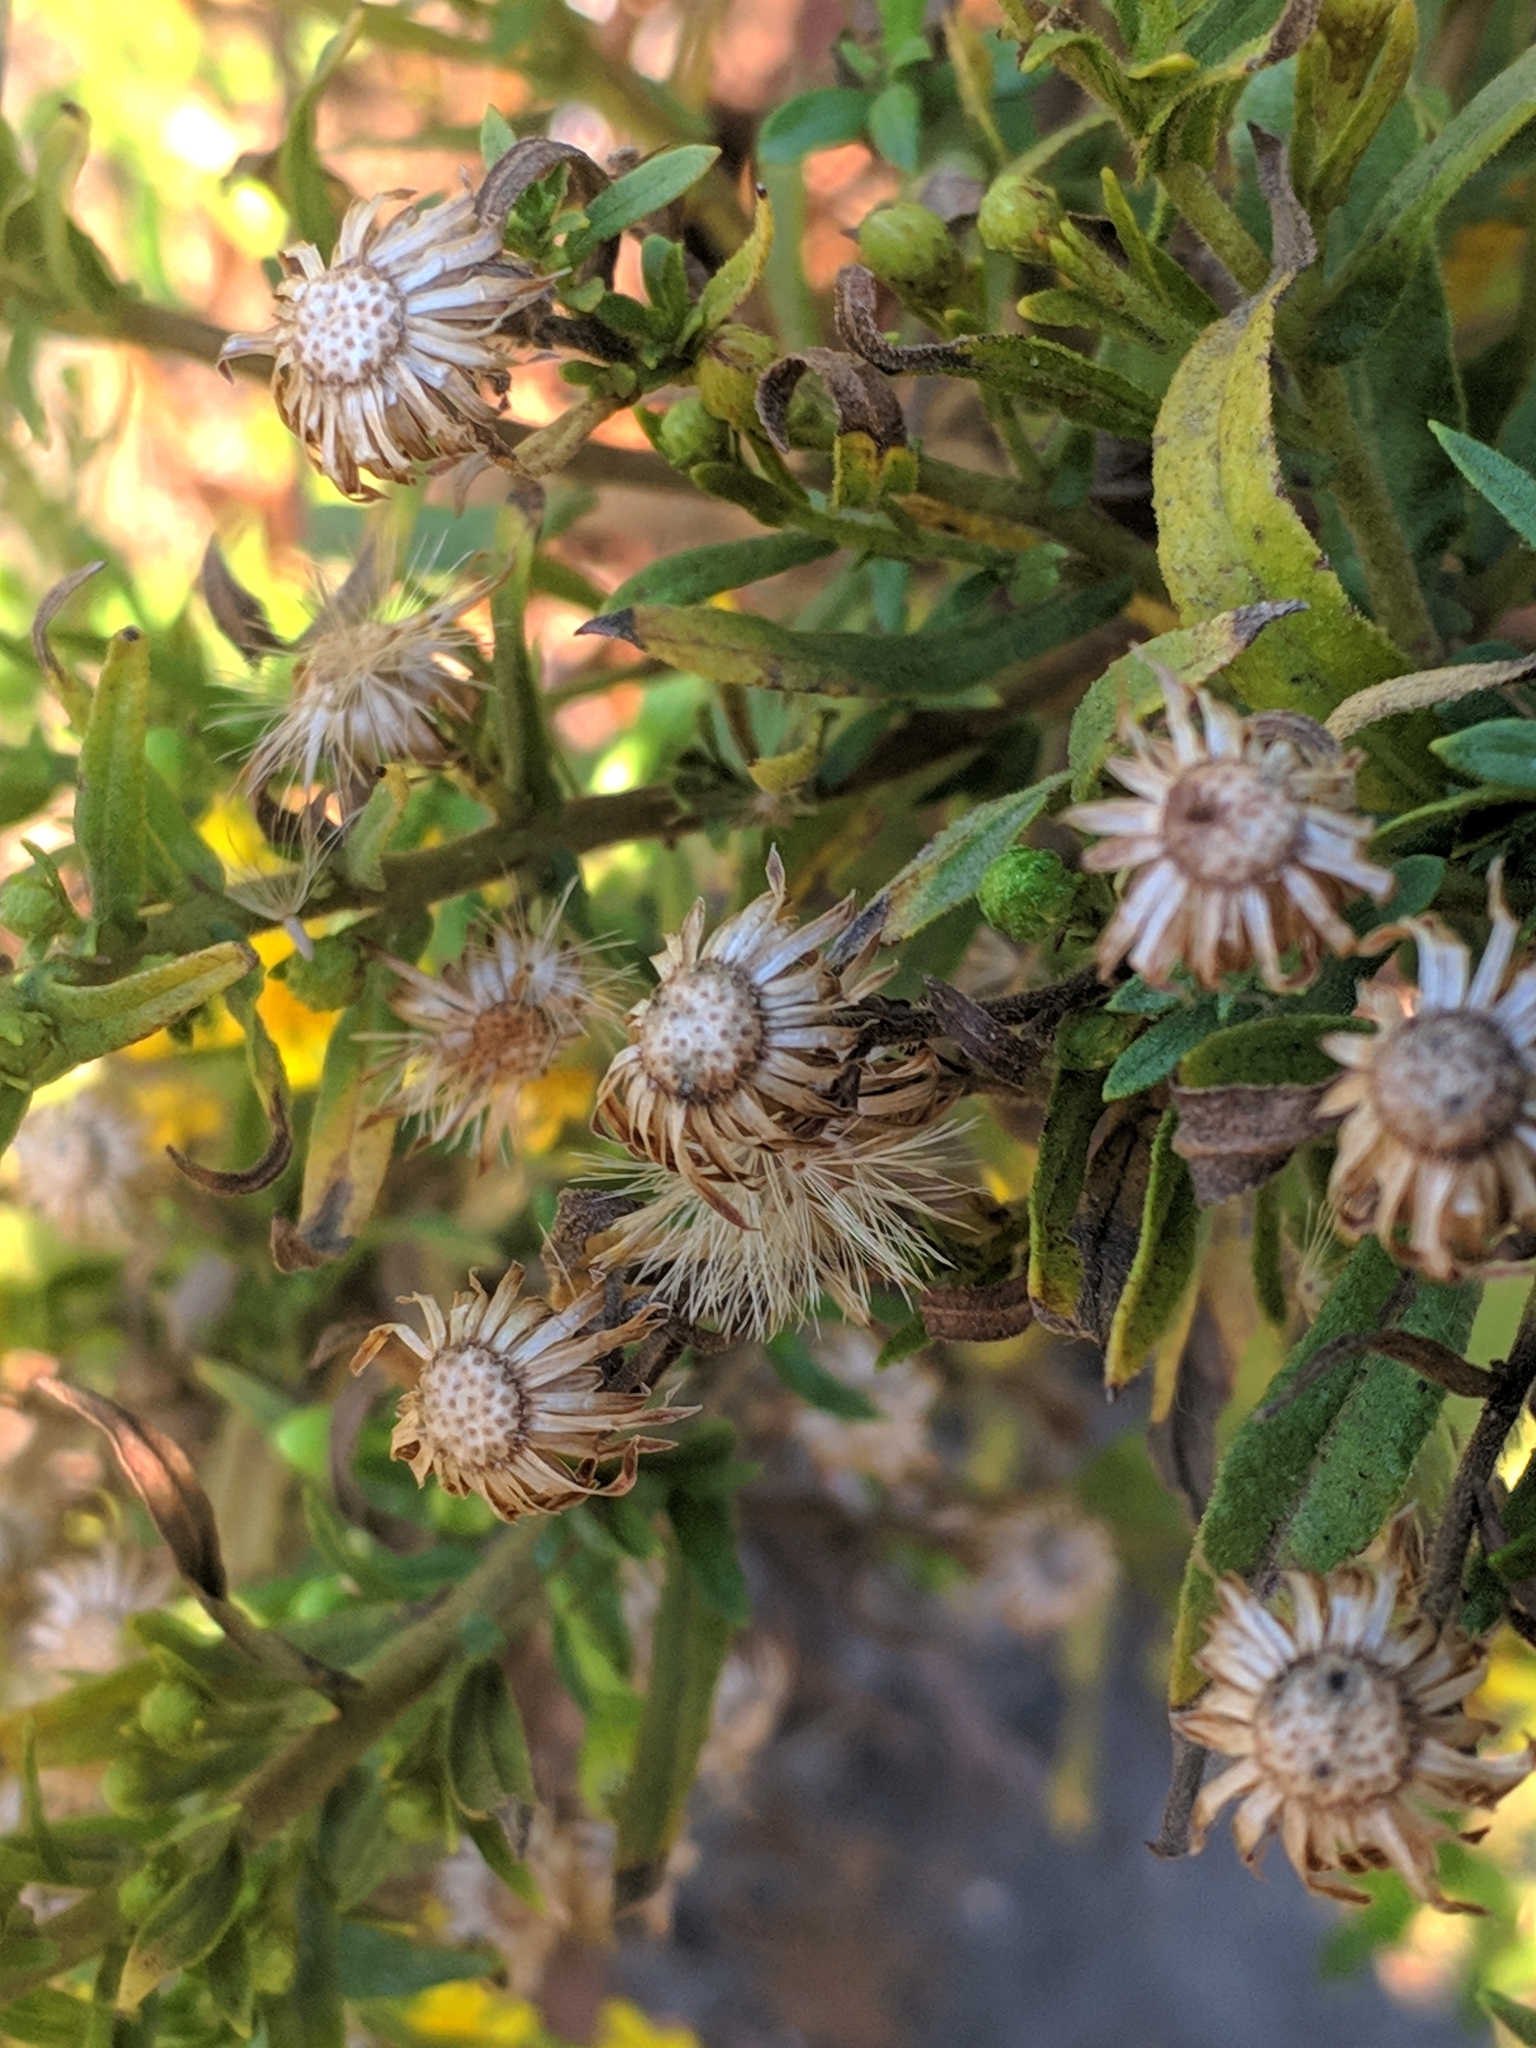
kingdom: Plantae
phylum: Tracheophyta
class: Magnoliopsida
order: Asterales
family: Asteraceae
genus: Dittrichia
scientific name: Dittrichia viscosa
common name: Woody fleabane
